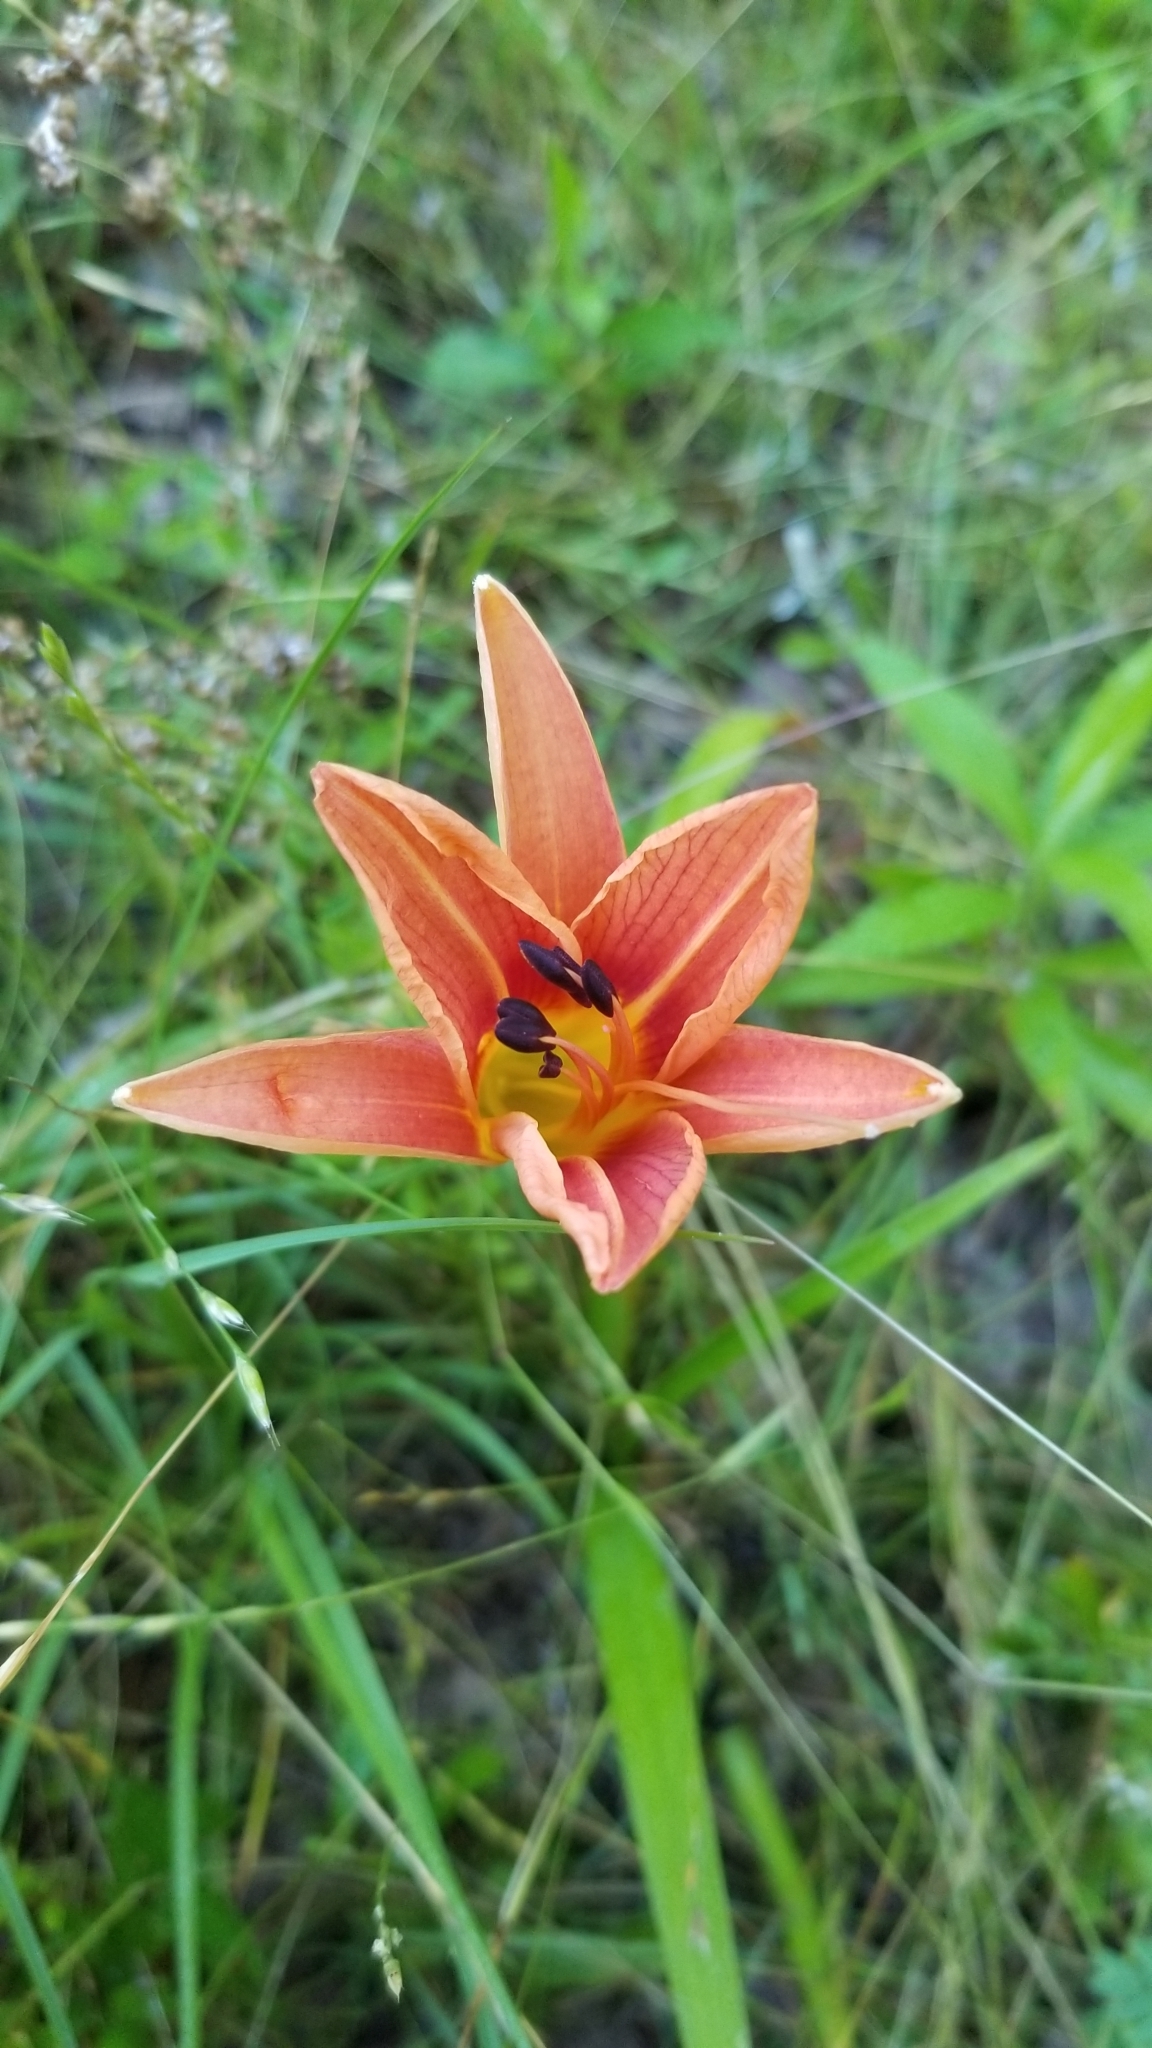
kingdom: Plantae
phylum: Tracheophyta
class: Liliopsida
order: Asparagales
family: Asphodelaceae
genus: Hemerocallis
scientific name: Hemerocallis fulva
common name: Orange day-lily
